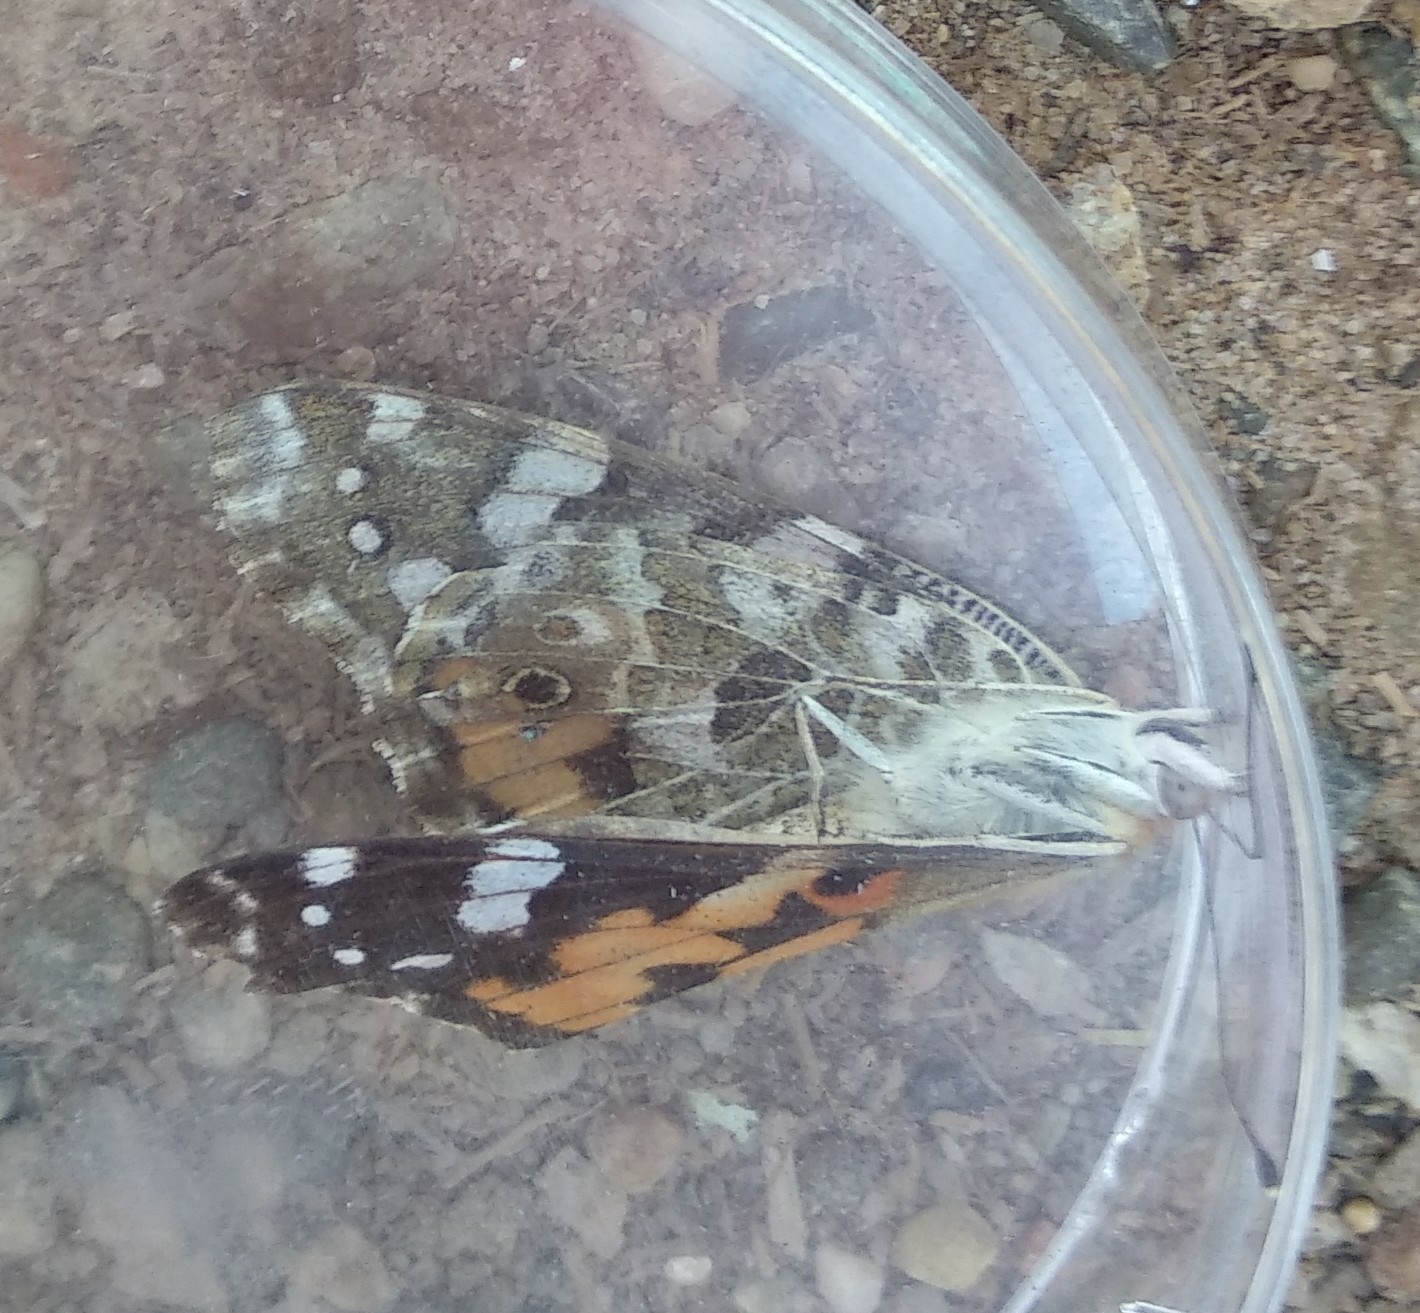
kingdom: Animalia
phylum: Arthropoda
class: Insecta
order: Lepidoptera
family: Nymphalidae
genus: Vanessa
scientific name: Vanessa cardui
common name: Painted lady
